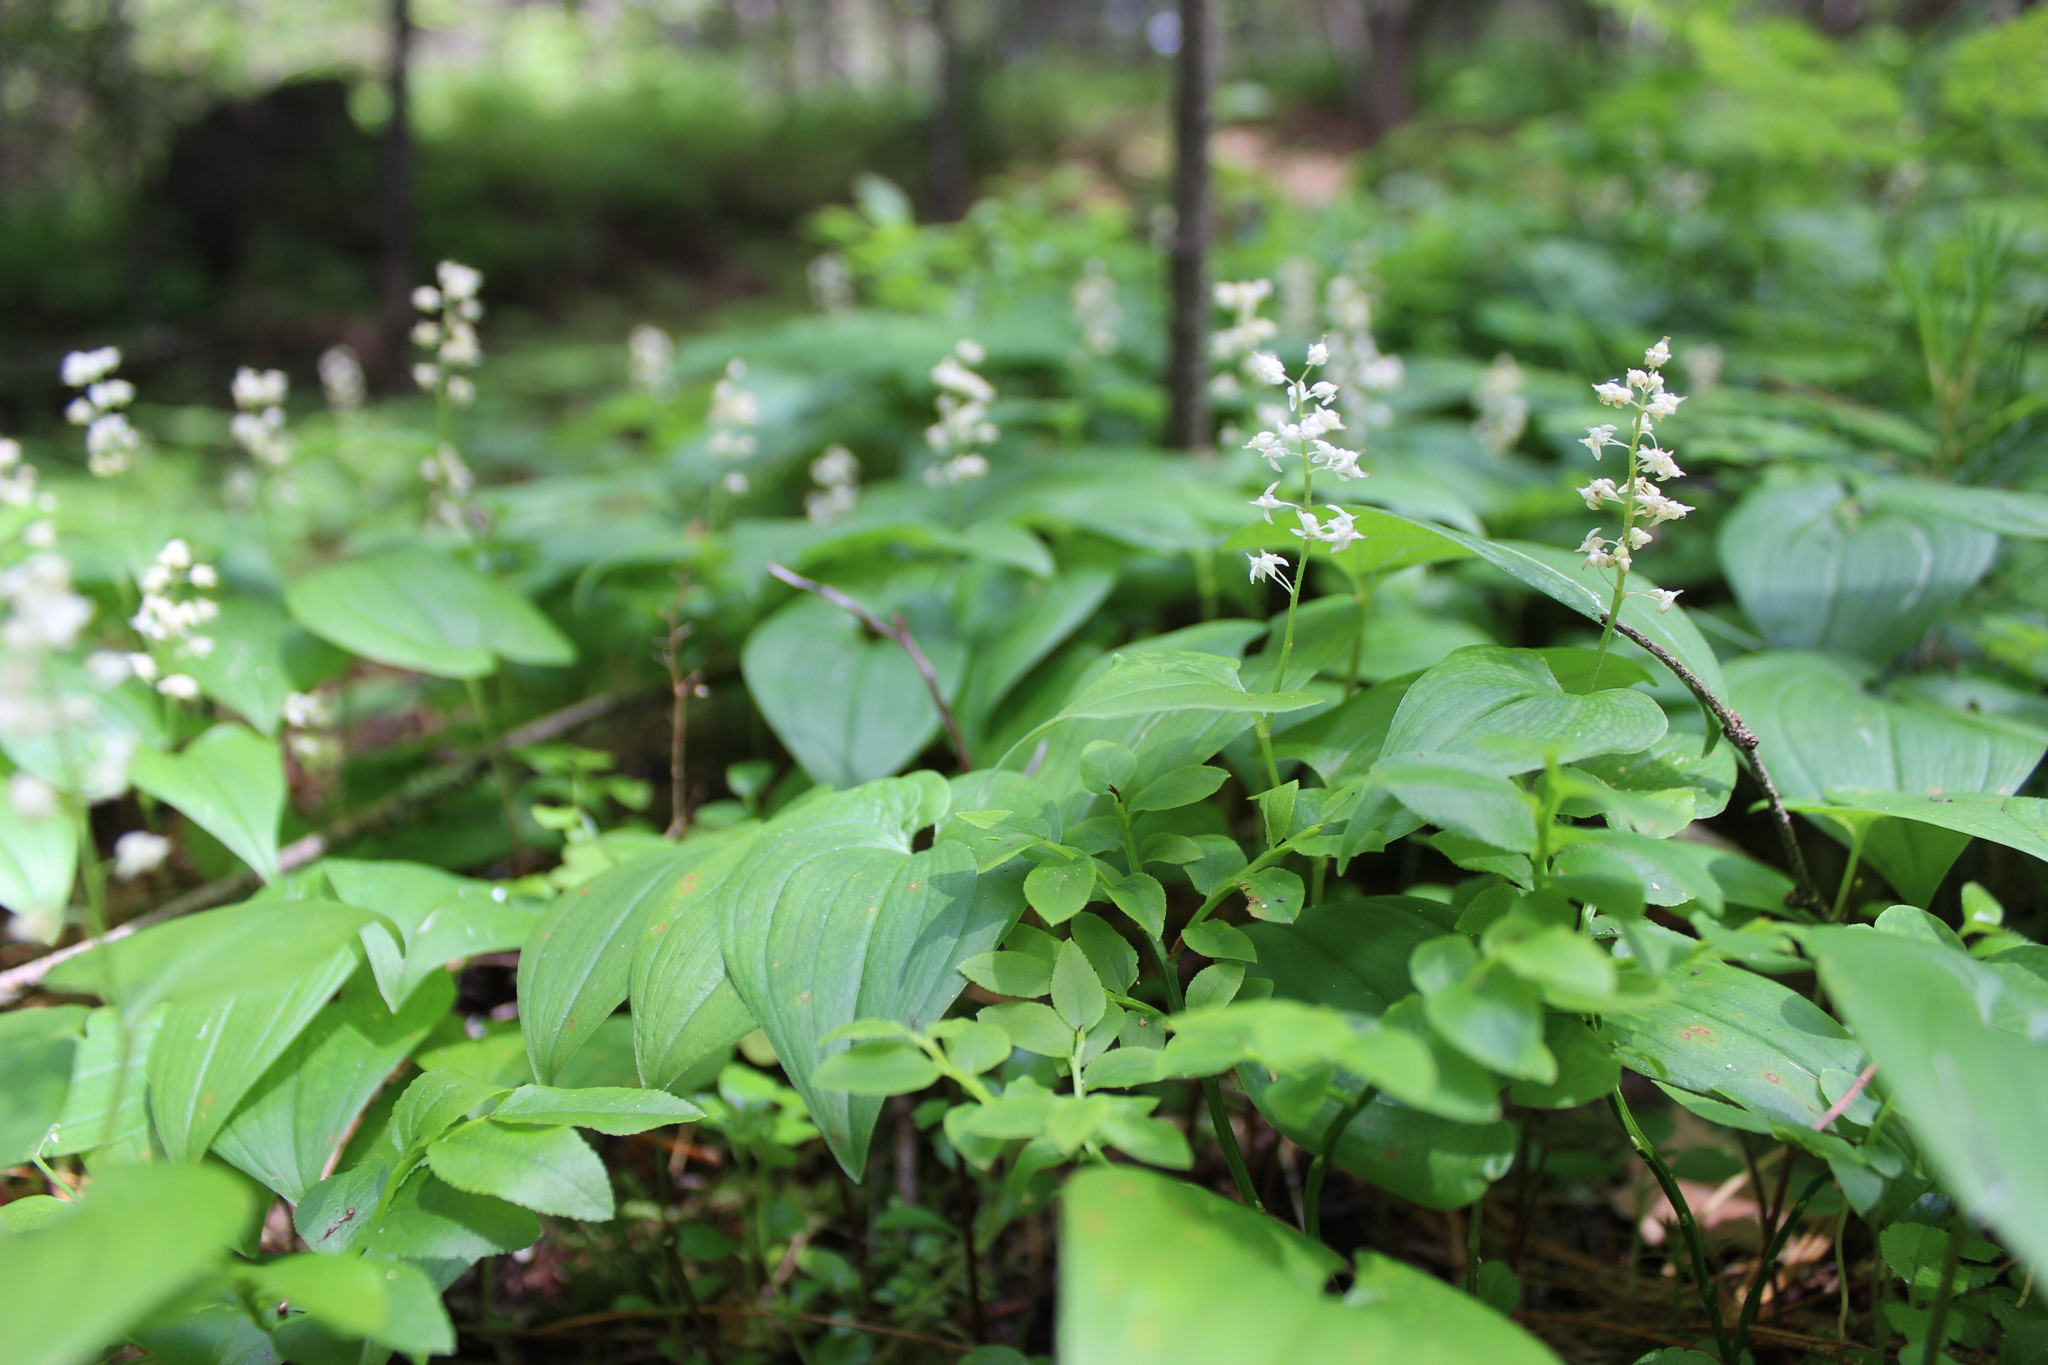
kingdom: Plantae
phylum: Tracheophyta
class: Liliopsida
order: Asparagales
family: Asparagaceae
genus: Maianthemum
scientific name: Maianthemum bifolium
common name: May lily
